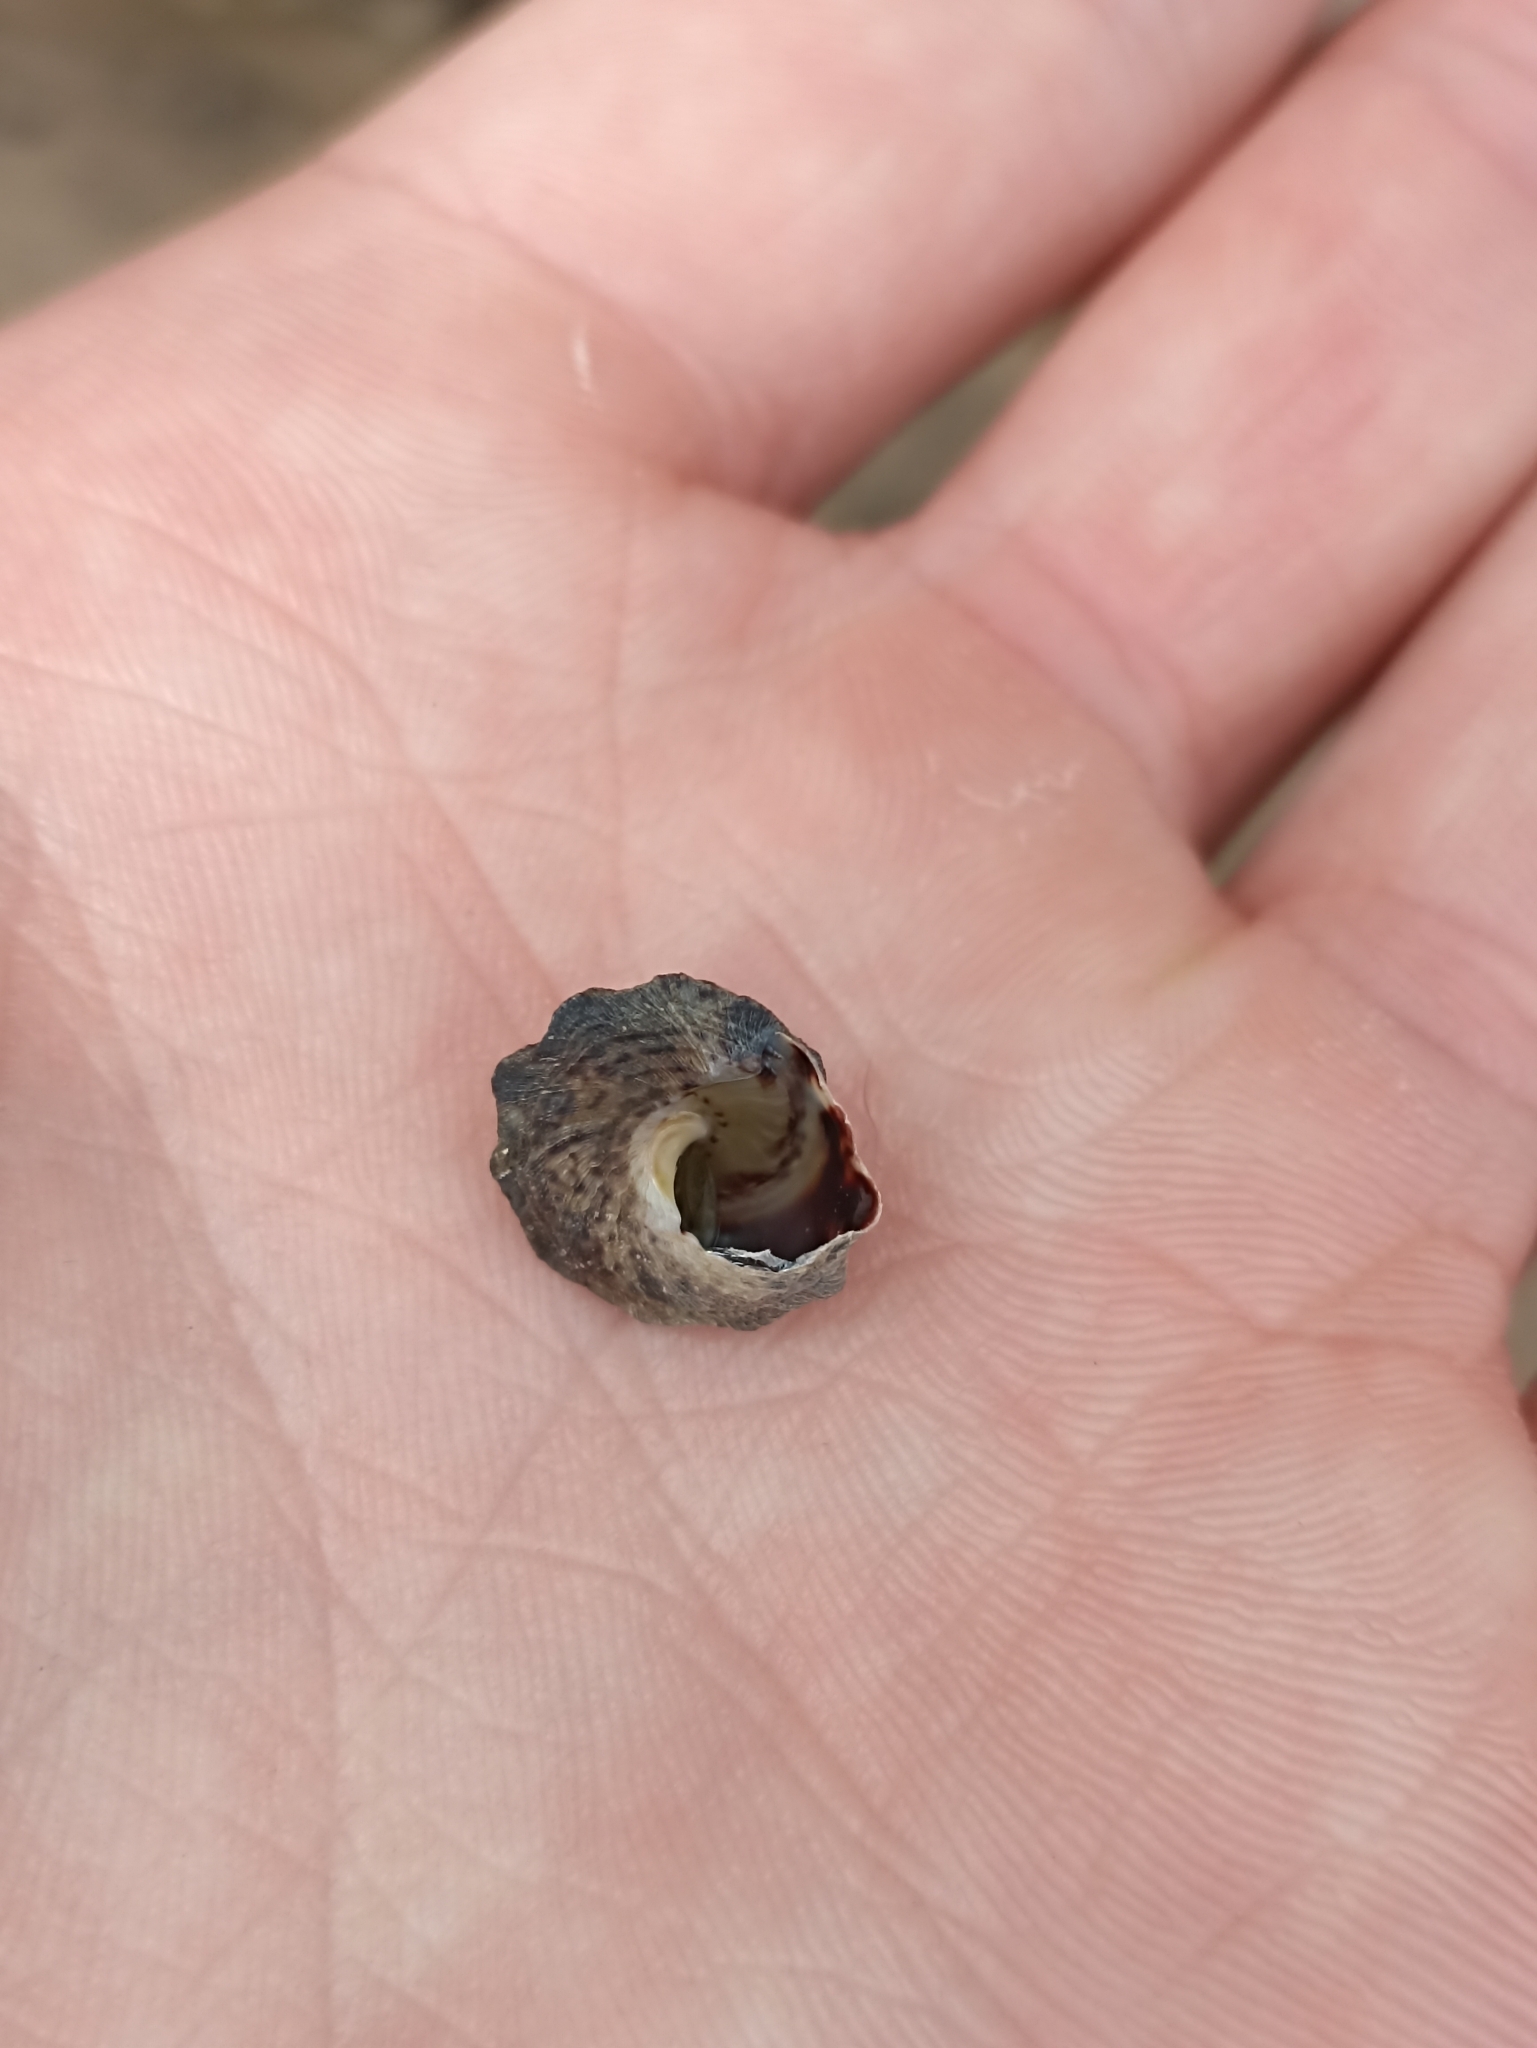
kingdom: Animalia
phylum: Mollusca
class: Gastropoda
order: Littorinimorpha
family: Littorinidae
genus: Bembicium
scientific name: Bembicium auratum
